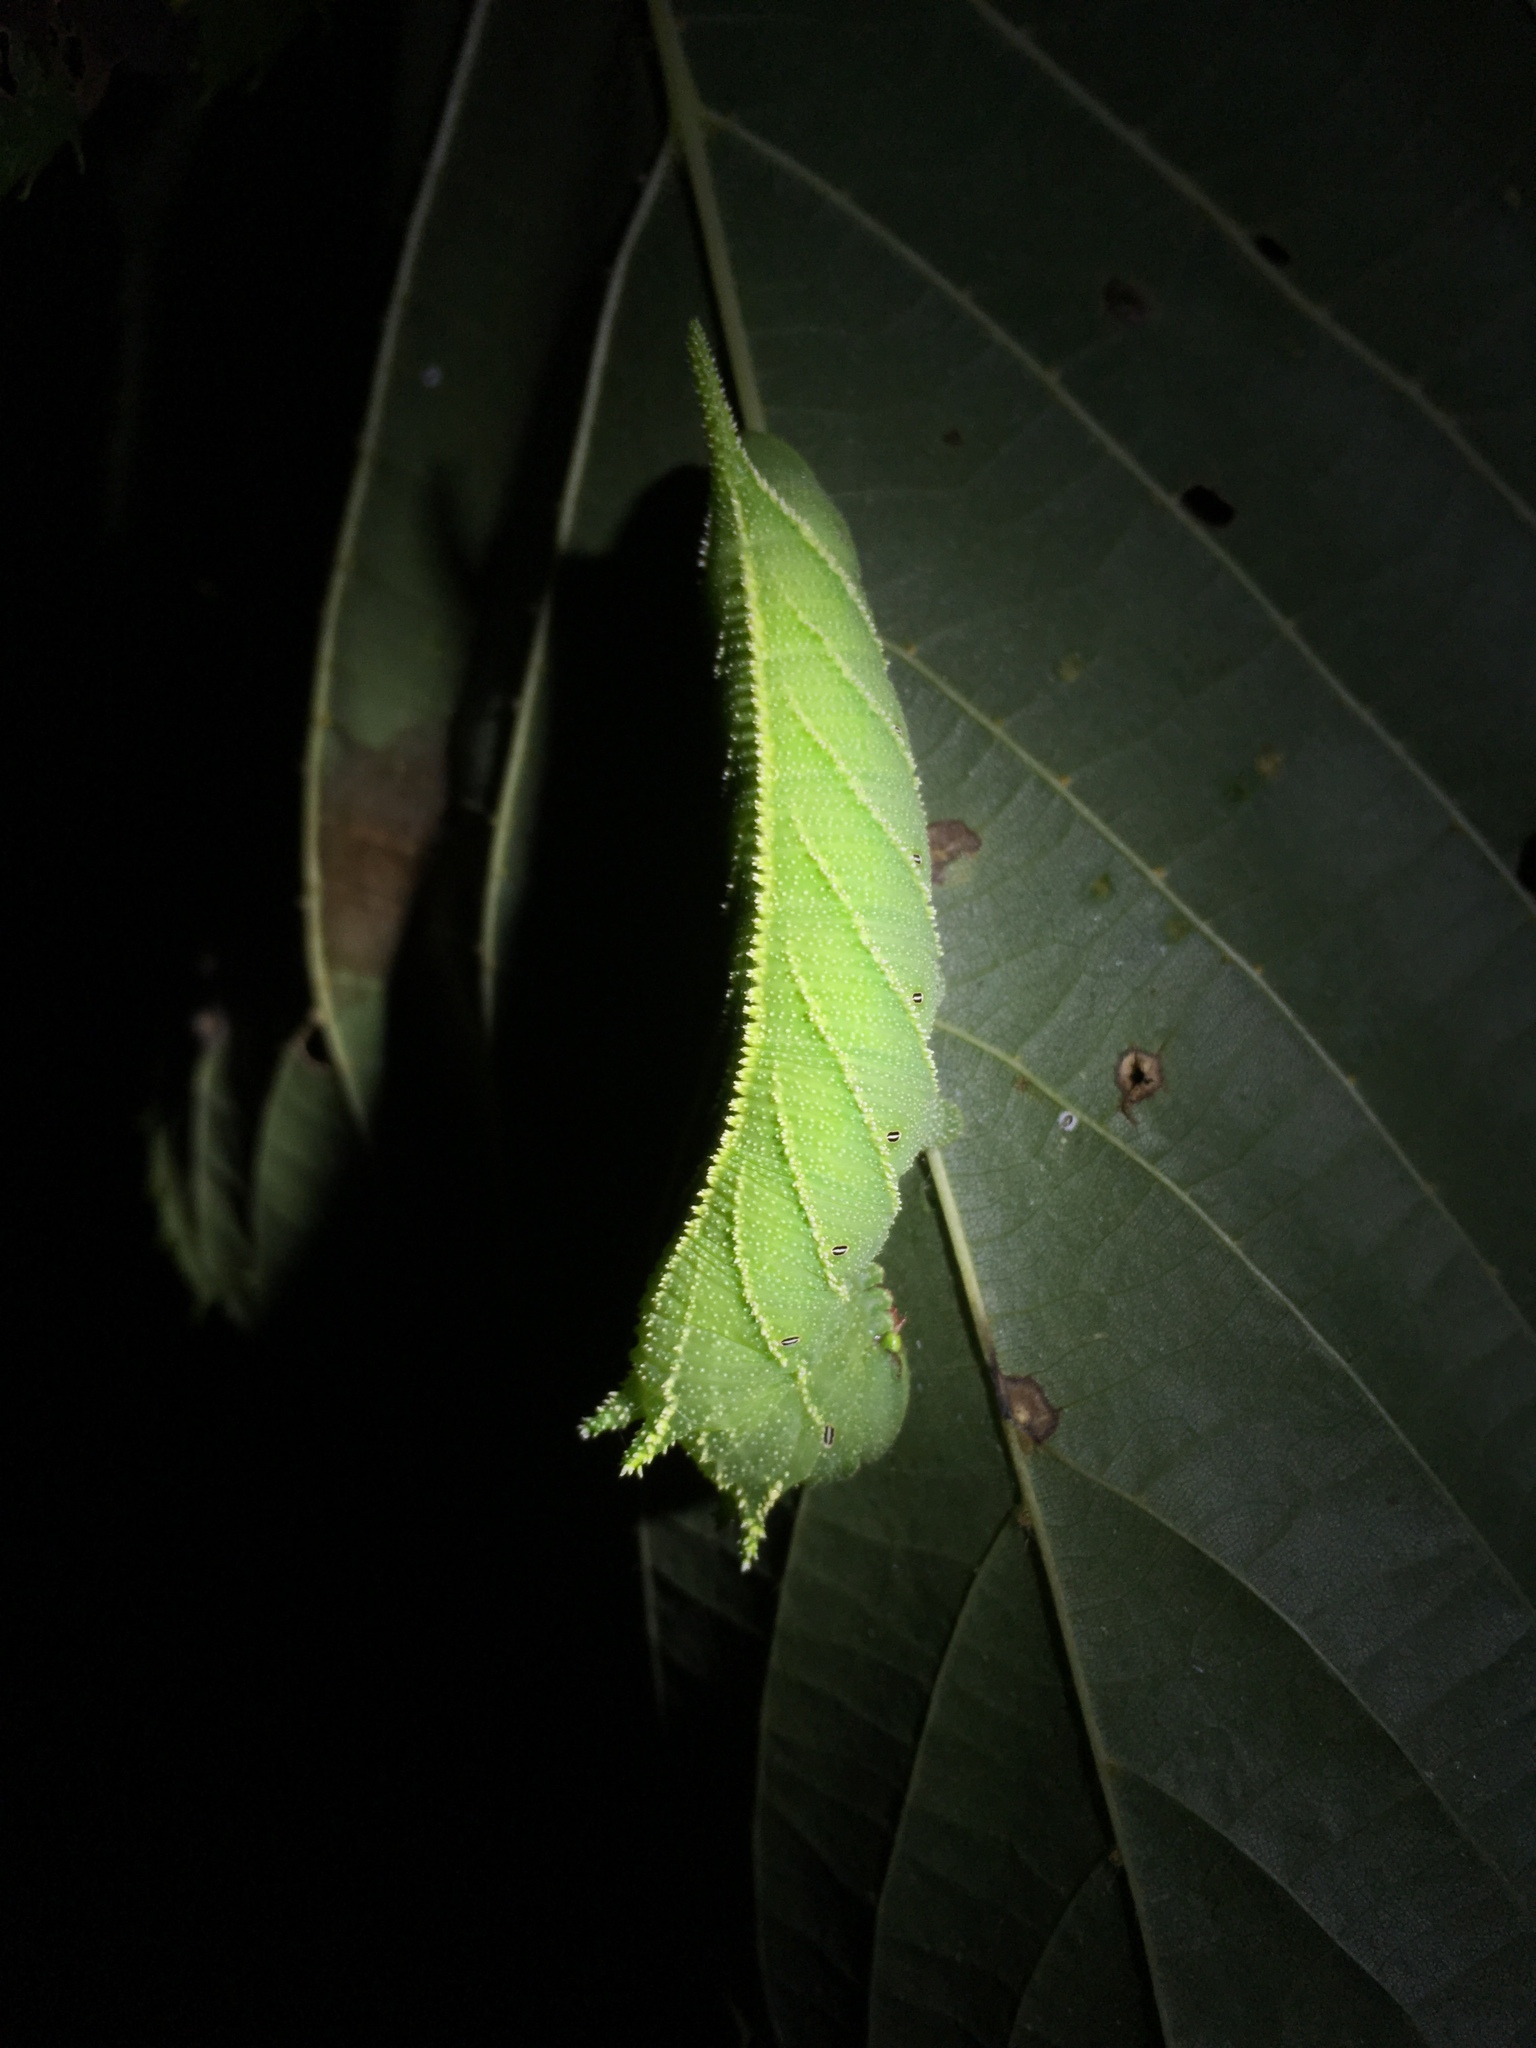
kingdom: Animalia
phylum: Arthropoda
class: Insecta
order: Lepidoptera
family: Sphingidae
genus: Ceratomia
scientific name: Ceratomia amyntor
